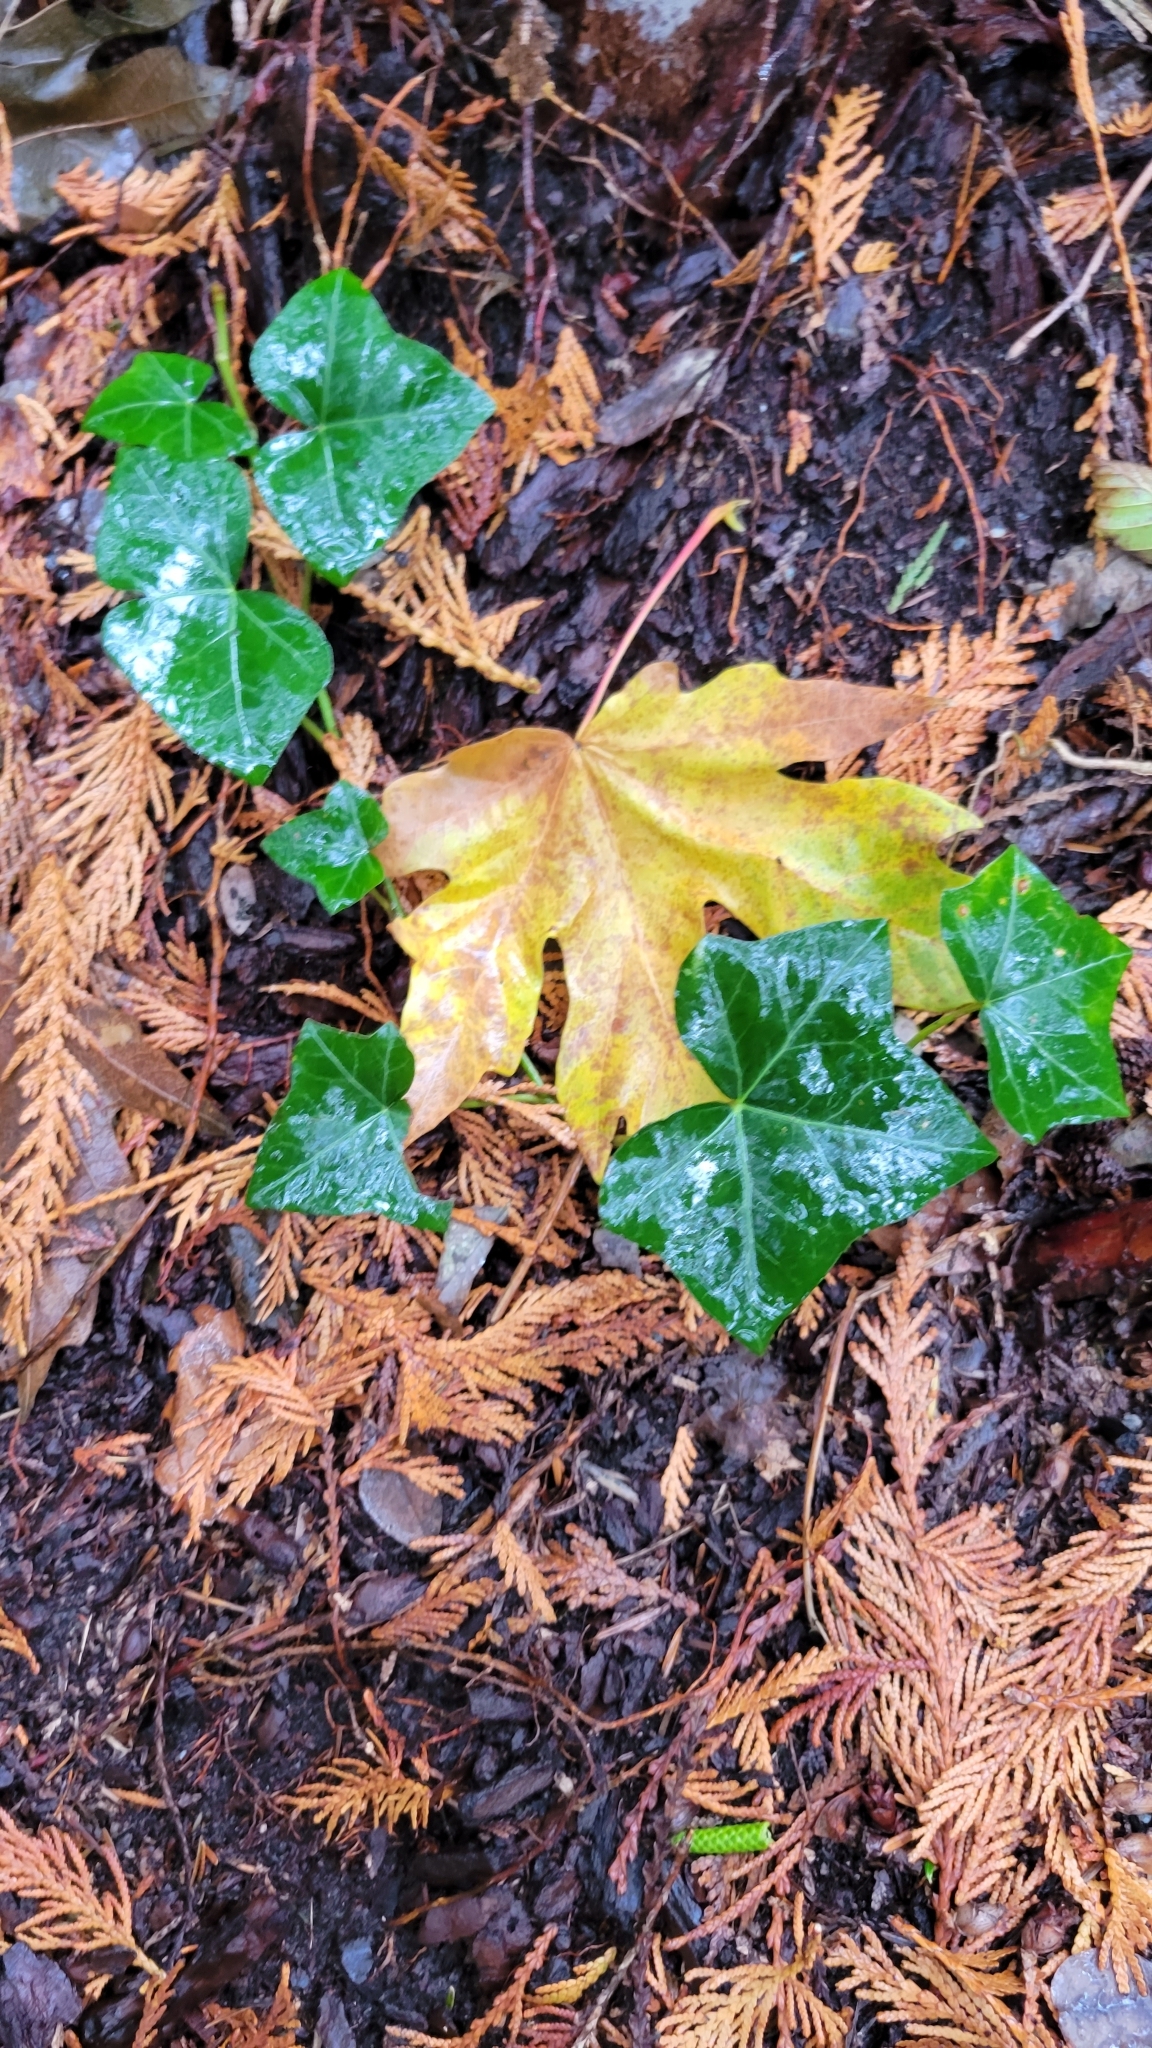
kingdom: Plantae
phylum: Tracheophyta
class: Magnoliopsida
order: Apiales
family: Araliaceae
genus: Hedera
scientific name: Hedera helix
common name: Ivy
